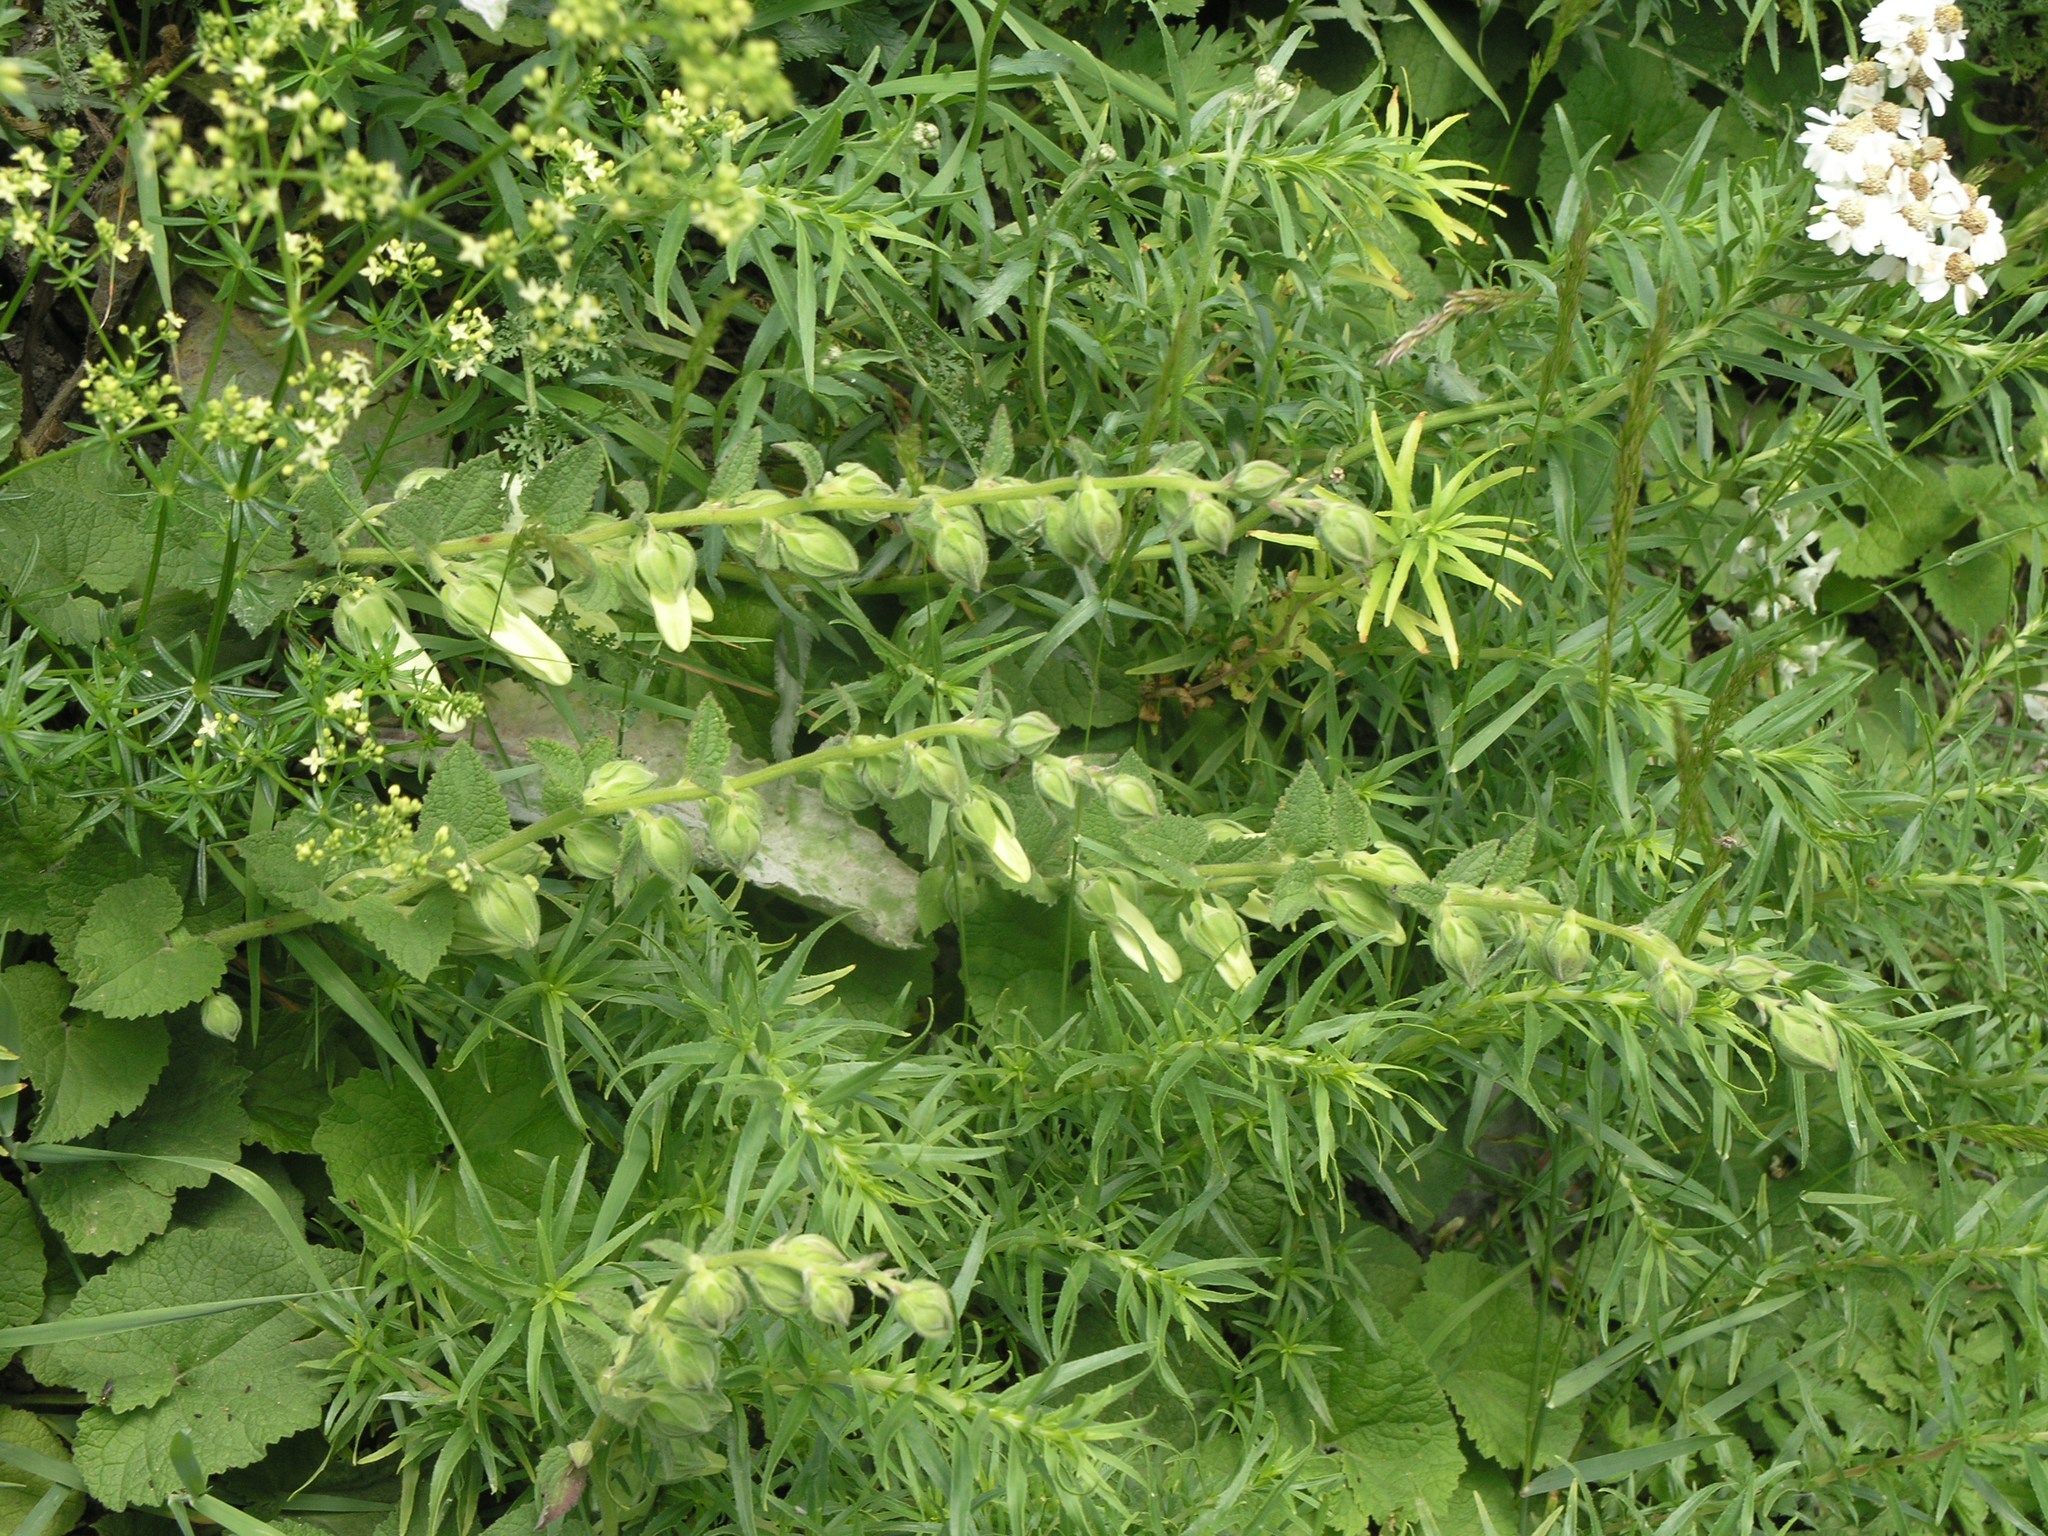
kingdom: Plantae
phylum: Tracheophyta
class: Magnoliopsida
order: Asterales
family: Campanulaceae
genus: Campanula
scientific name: Campanula alliariifolia
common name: Cornish bellflower
